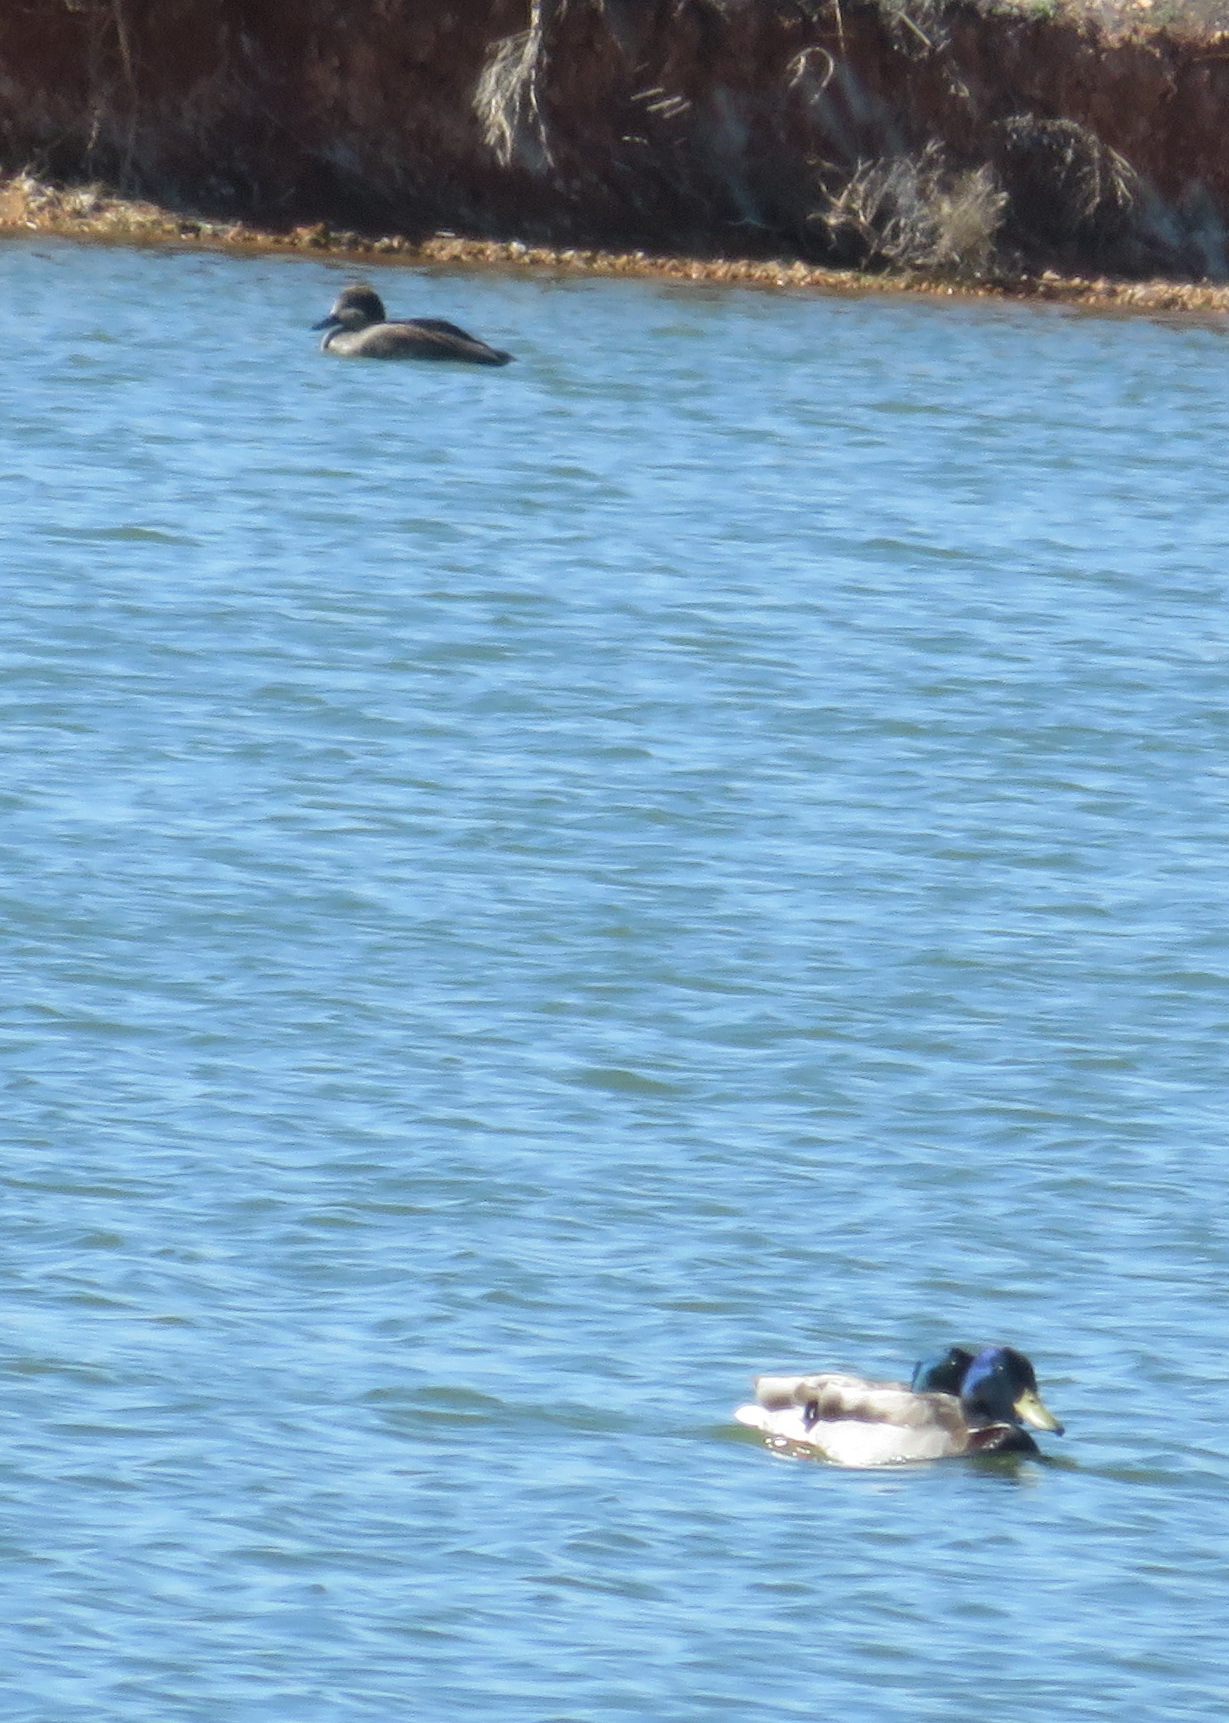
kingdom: Animalia
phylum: Chordata
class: Aves
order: Anseriformes
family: Anatidae
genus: Anas
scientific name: Anas platyrhynchos
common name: Mallard
